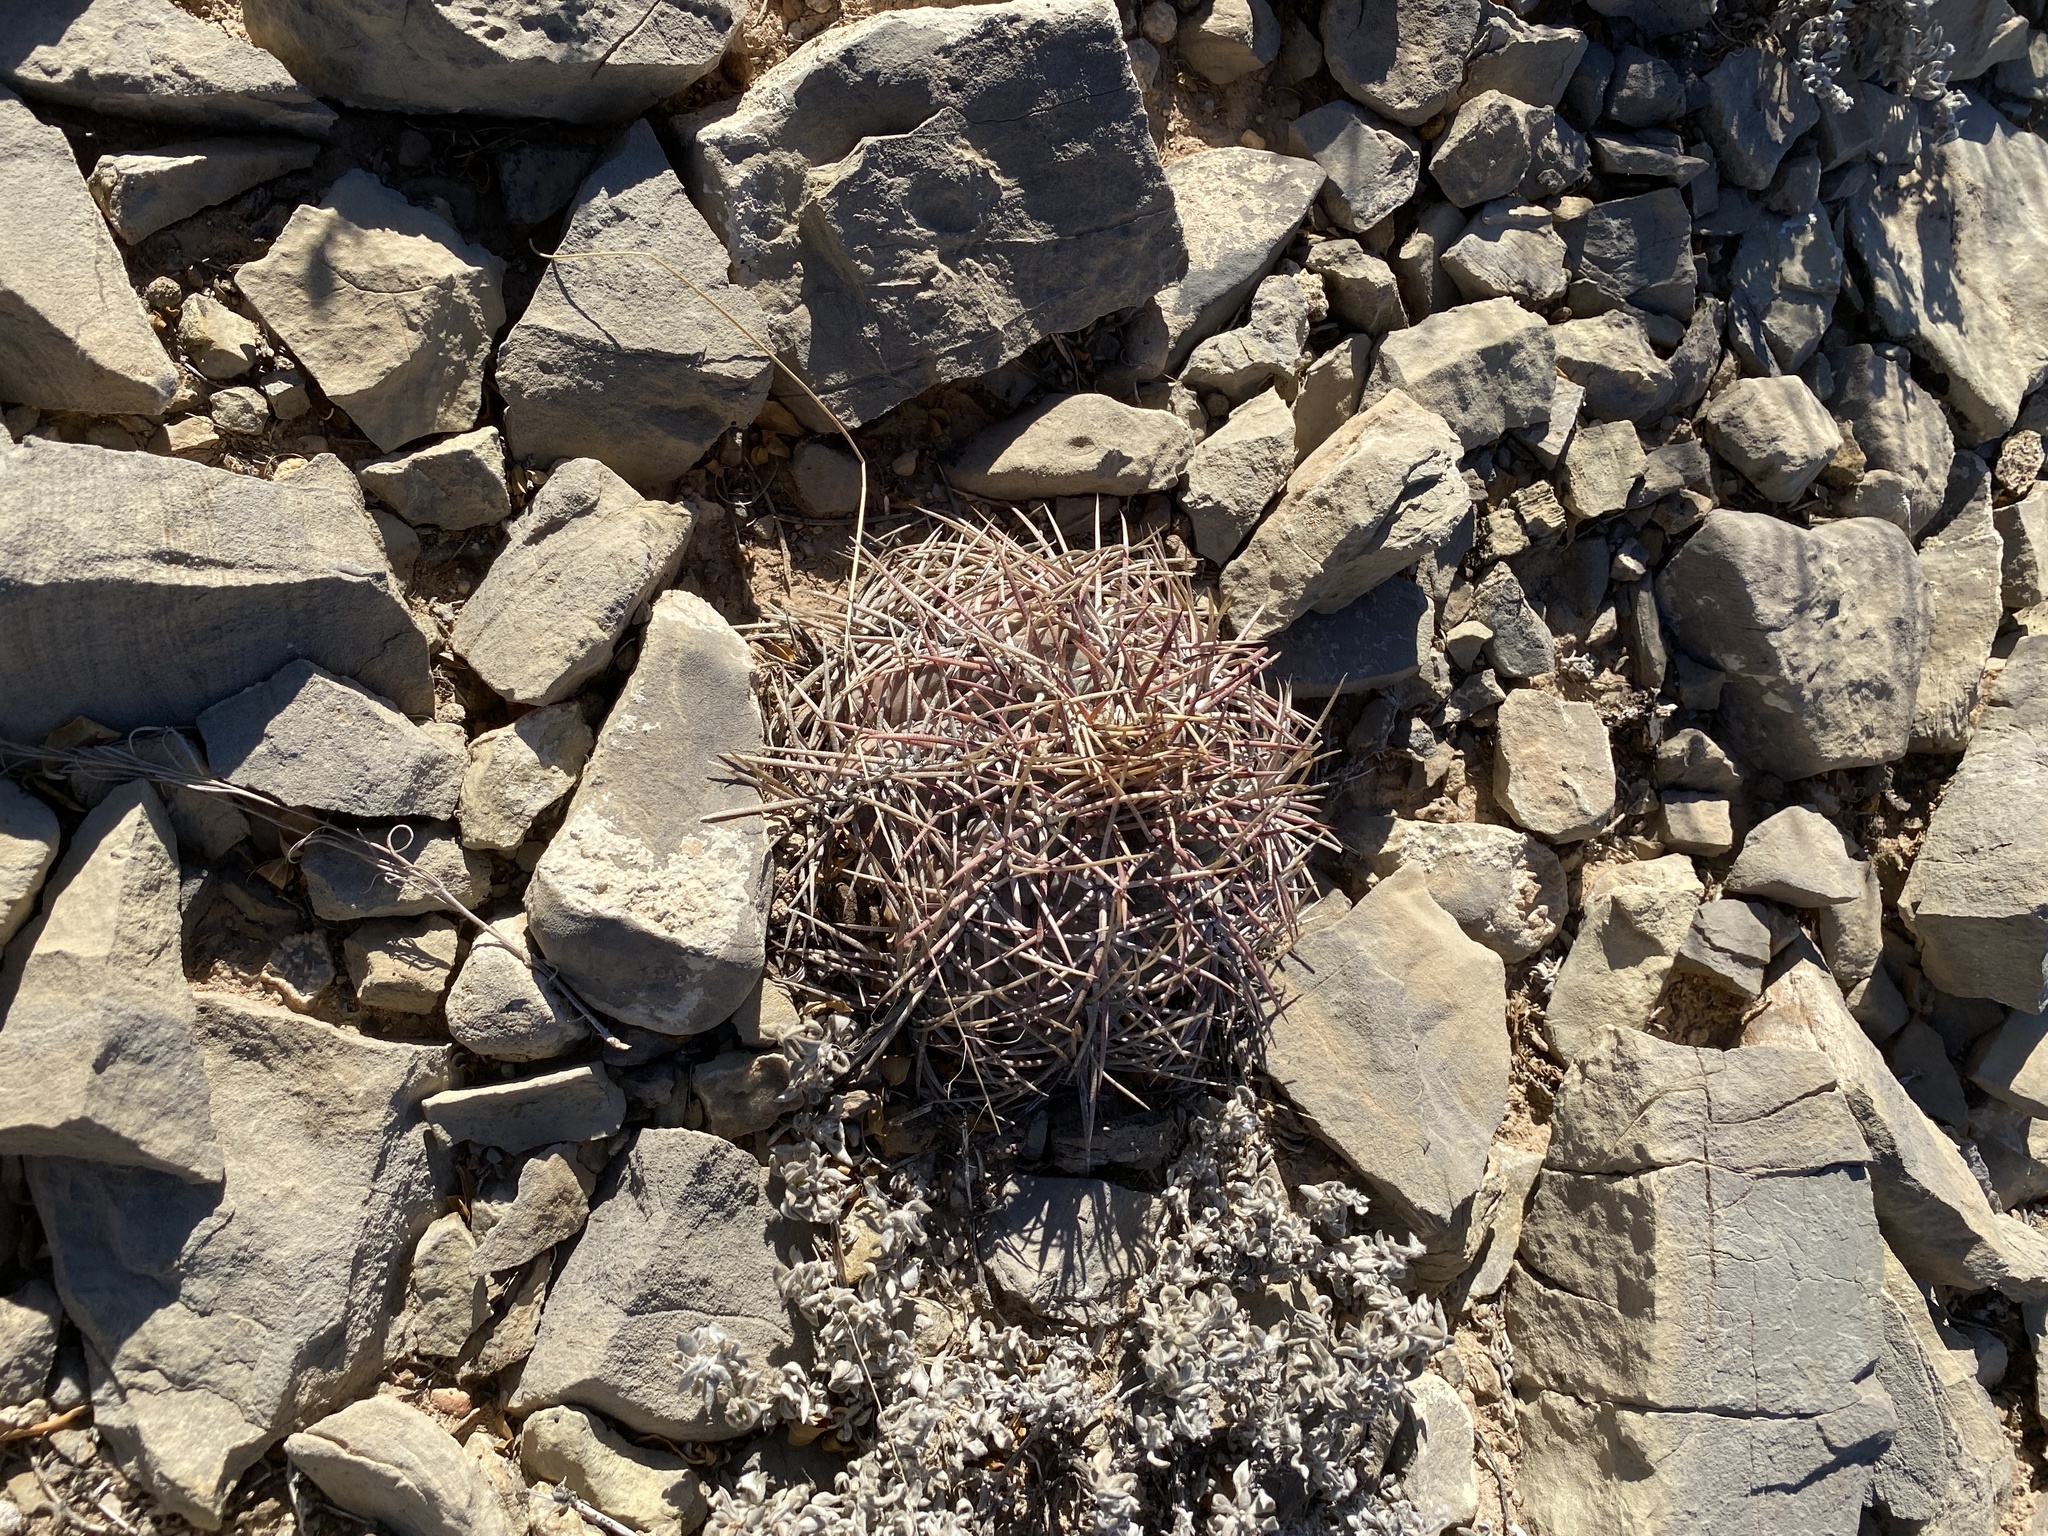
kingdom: Plantae
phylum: Tracheophyta
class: Magnoliopsida
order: Caryophyllales
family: Cactaceae
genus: Echinocactus
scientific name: Echinocactus horizonthalonius
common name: Devilshead
